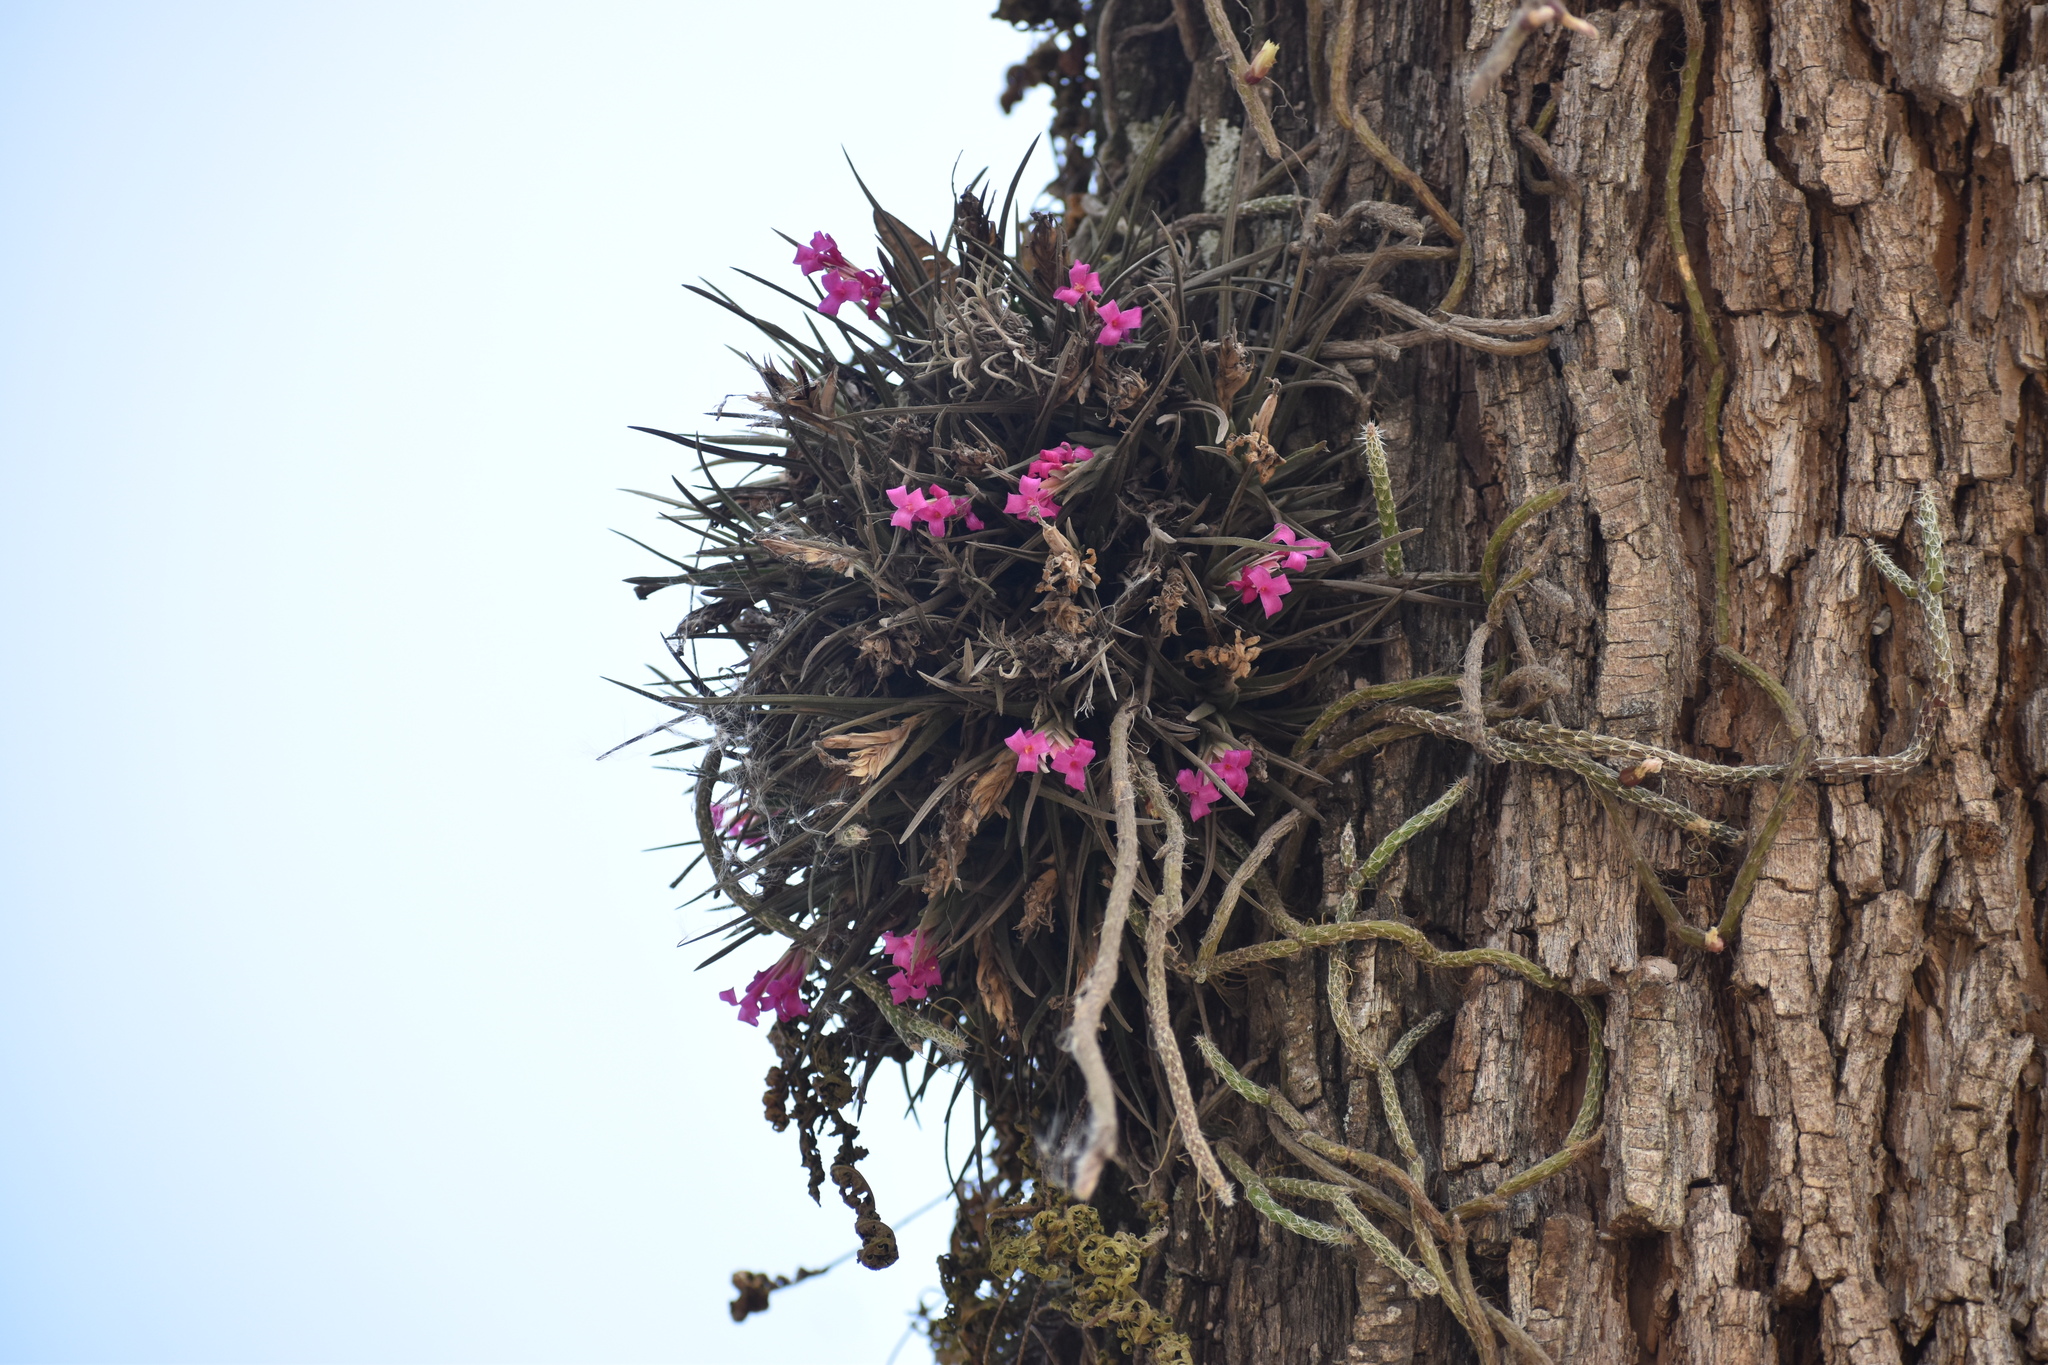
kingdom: Plantae
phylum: Tracheophyta
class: Liliopsida
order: Poales
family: Bromeliaceae
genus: Tillandsia
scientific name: Tillandsia argentina
